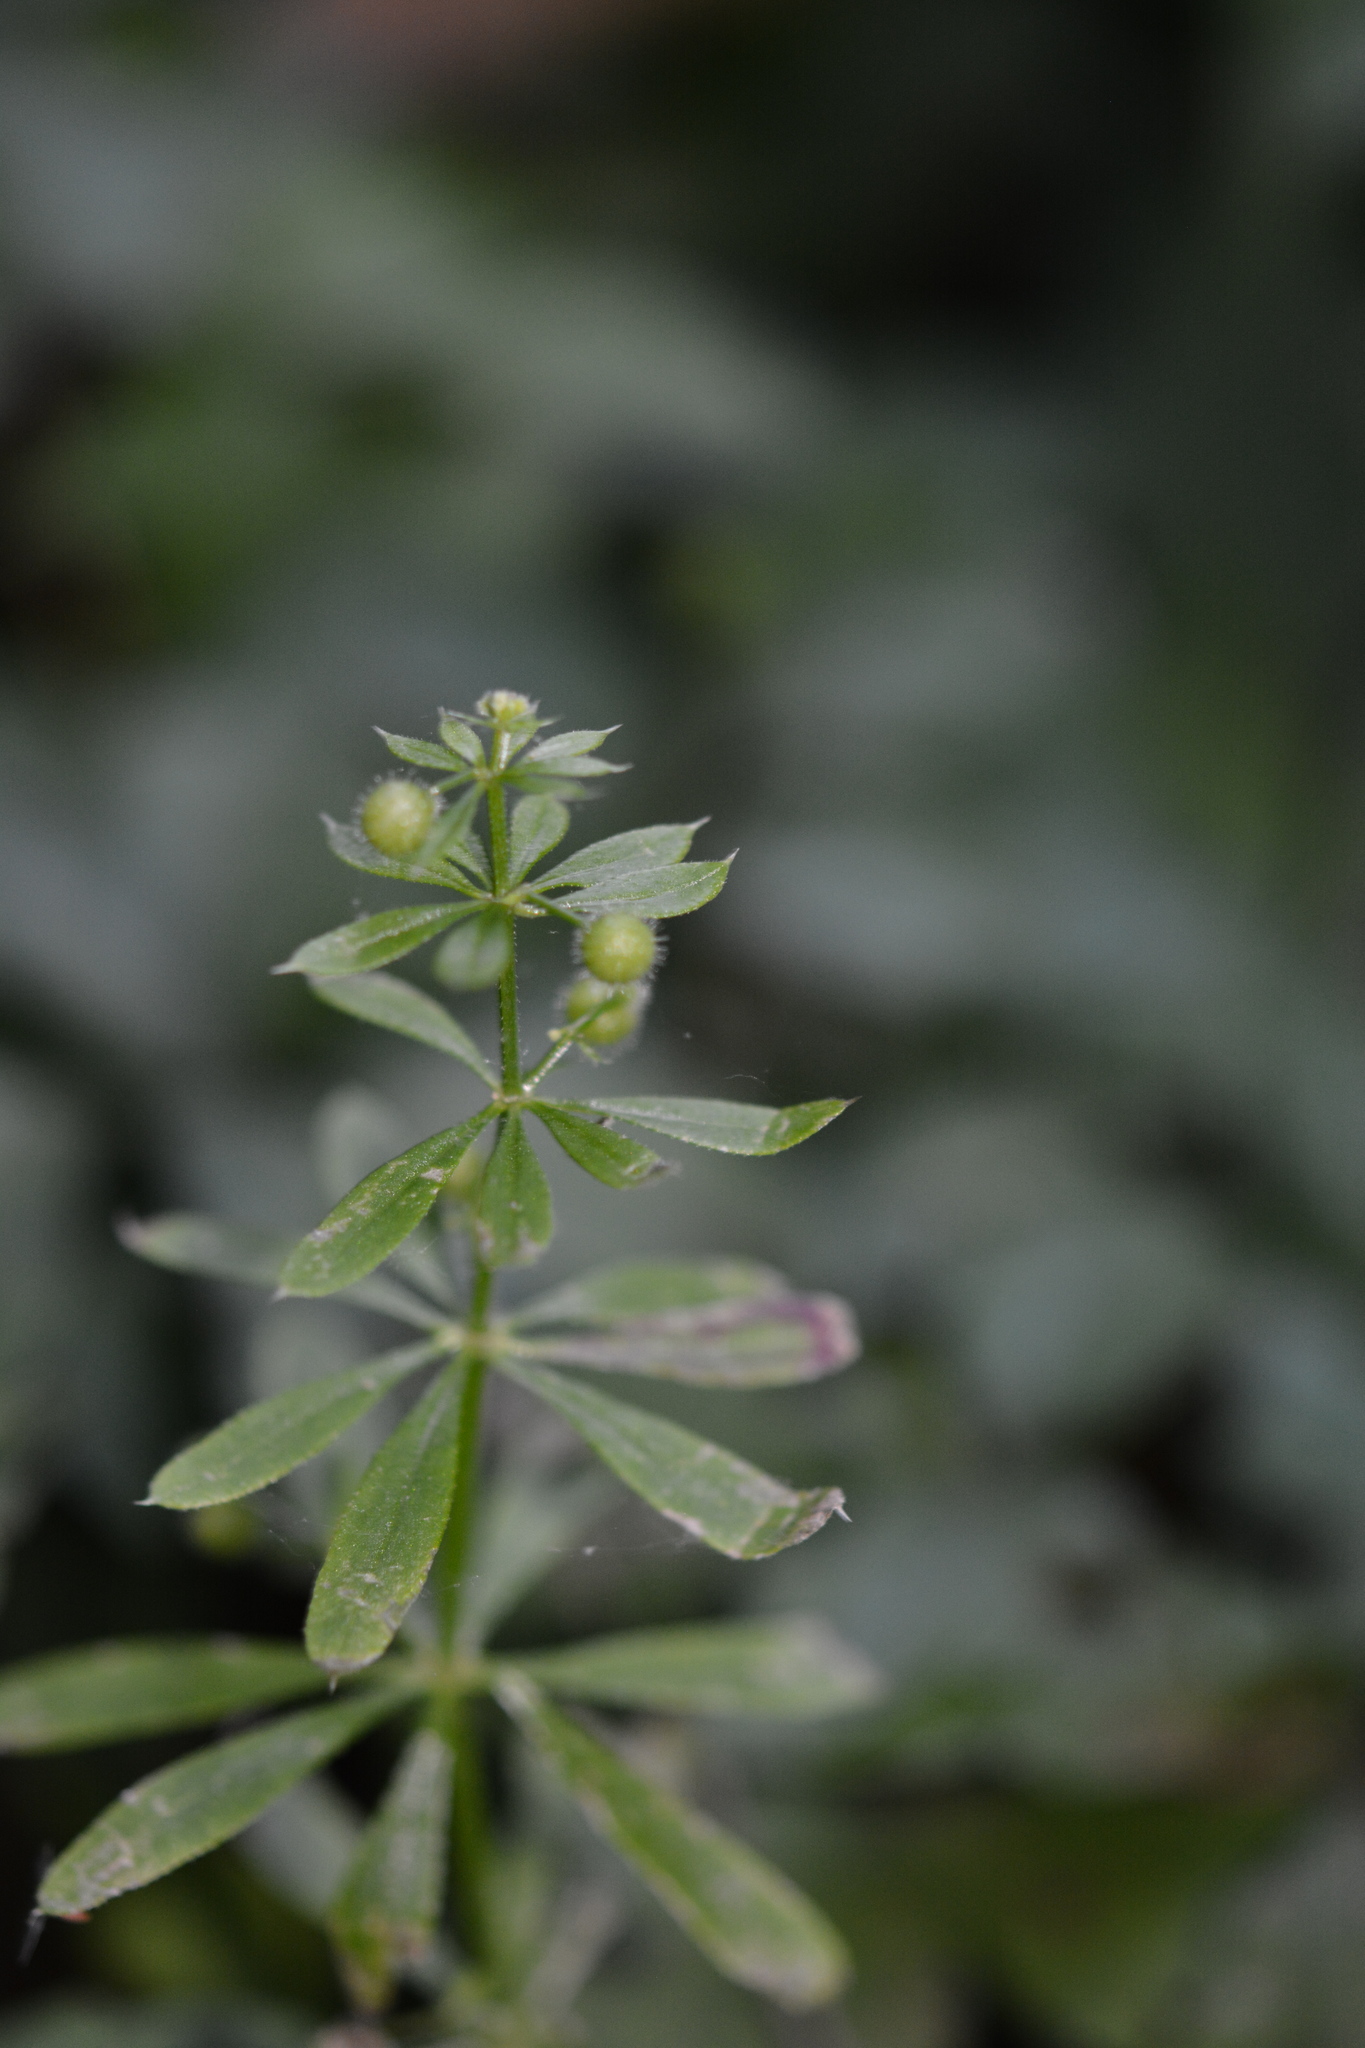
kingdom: Plantae
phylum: Tracheophyta
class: Magnoliopsida
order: Gentianales
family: Rubiaceae
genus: Galium
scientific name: Galium aparine
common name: Cleavers
